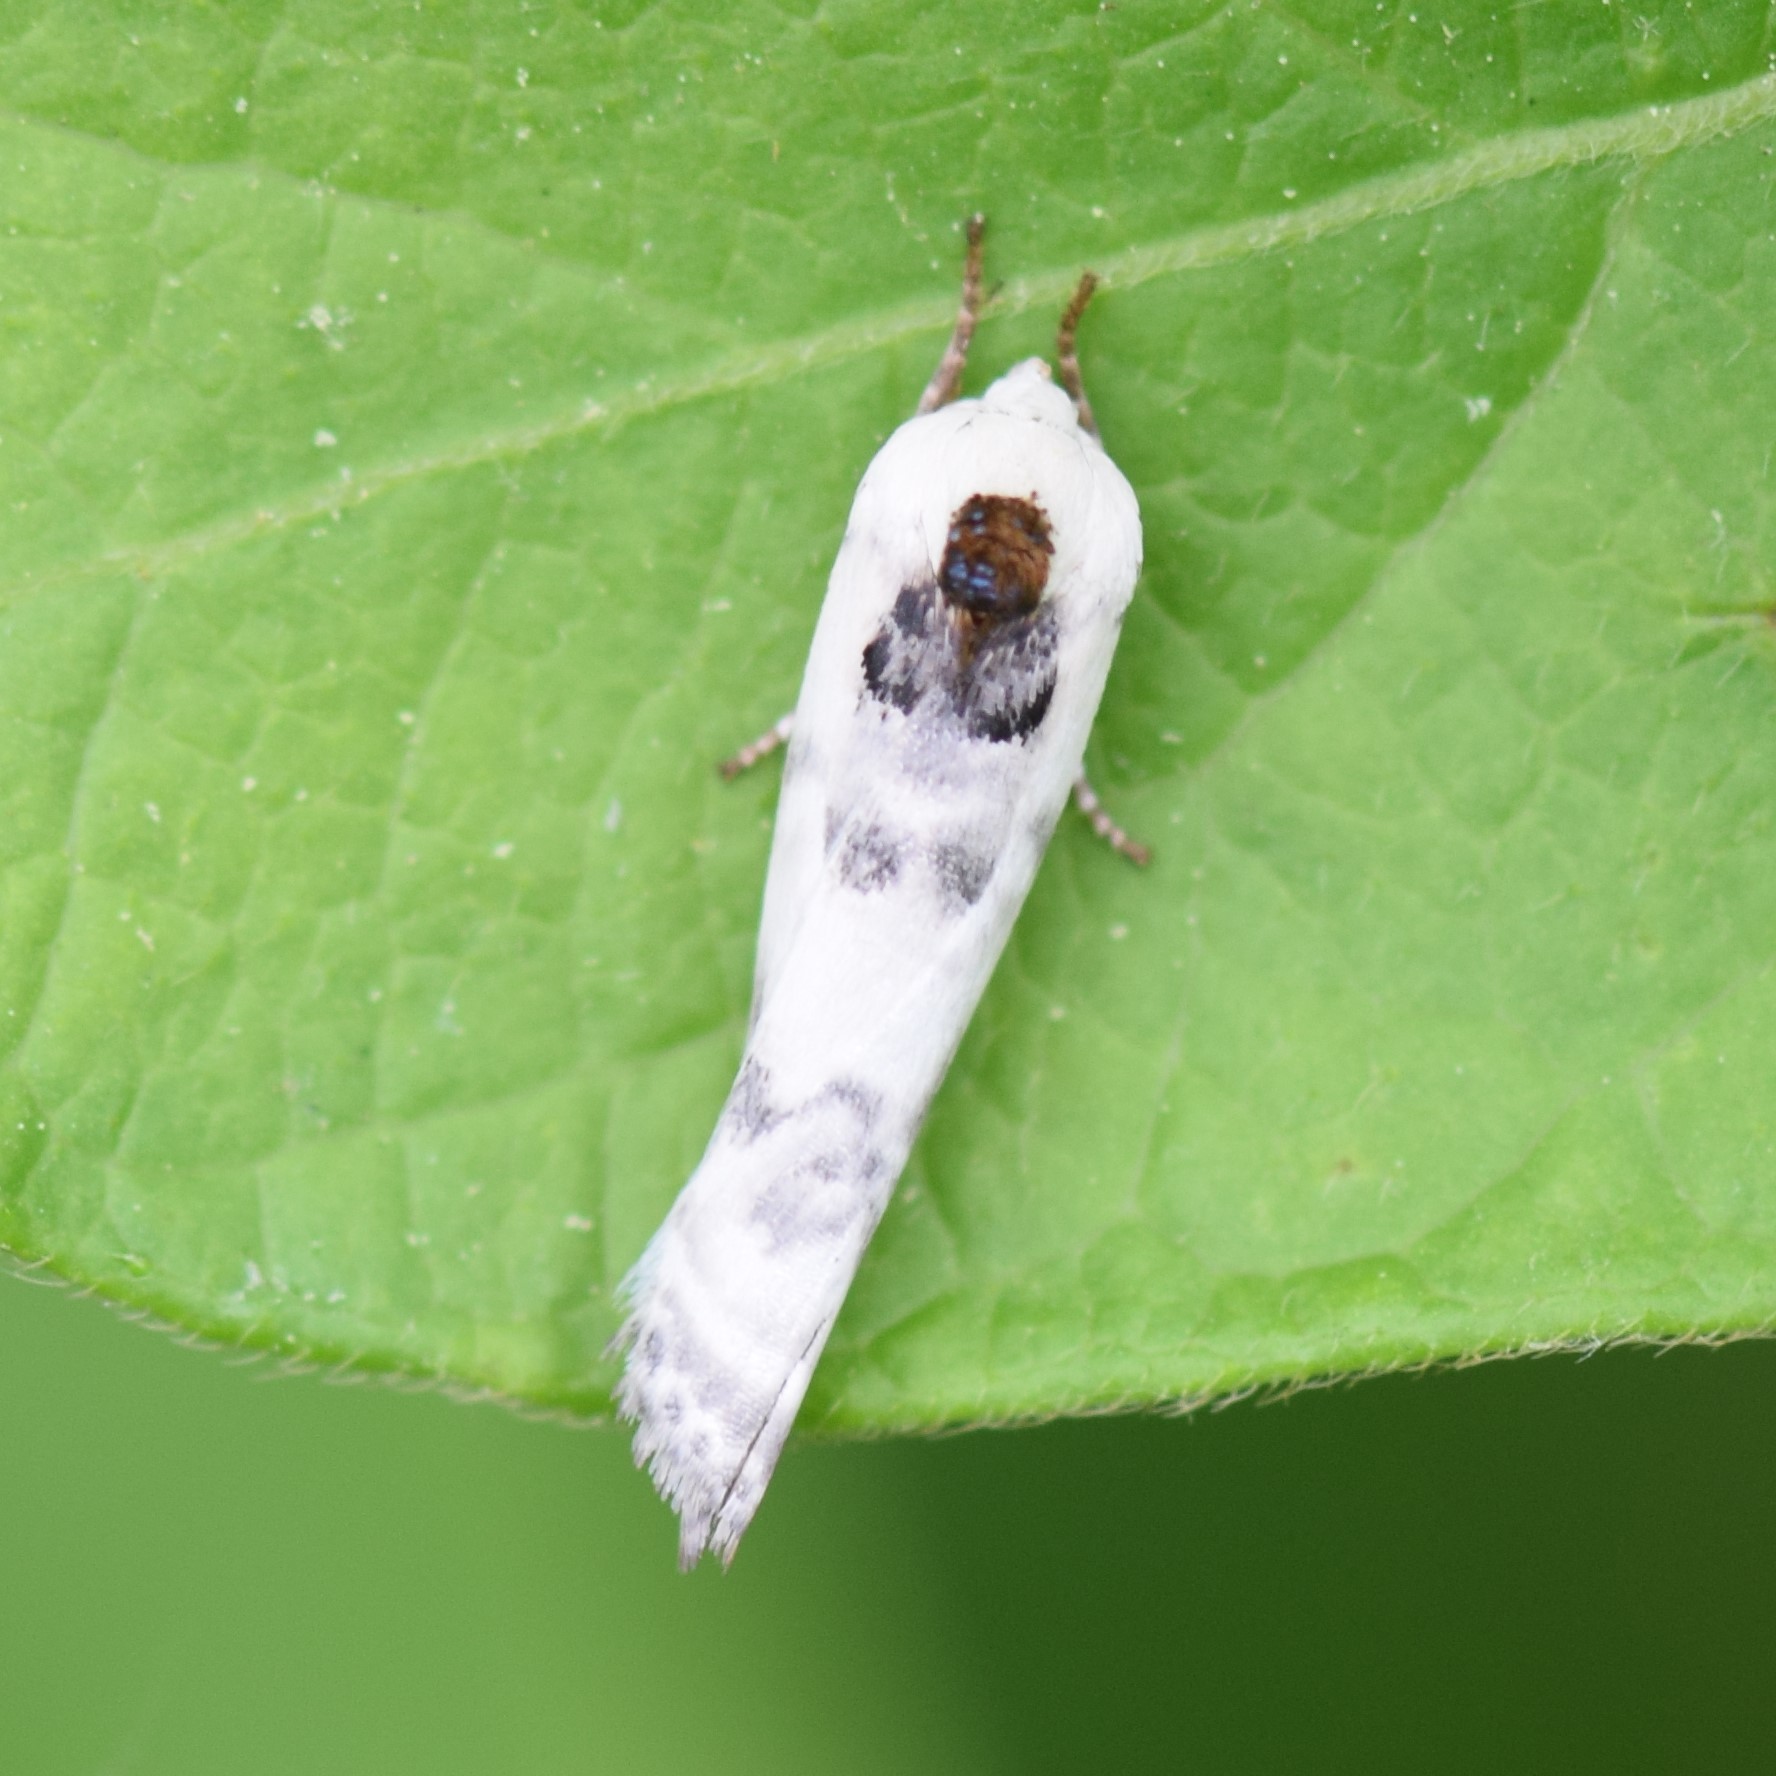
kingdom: Animalia
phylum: Arthropoda
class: Insecta
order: Lepidoptera
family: Depressariidae
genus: Antaeotricha
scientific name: Antaeotricha schlaegeri
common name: Schlaeger's fruitworm moth
